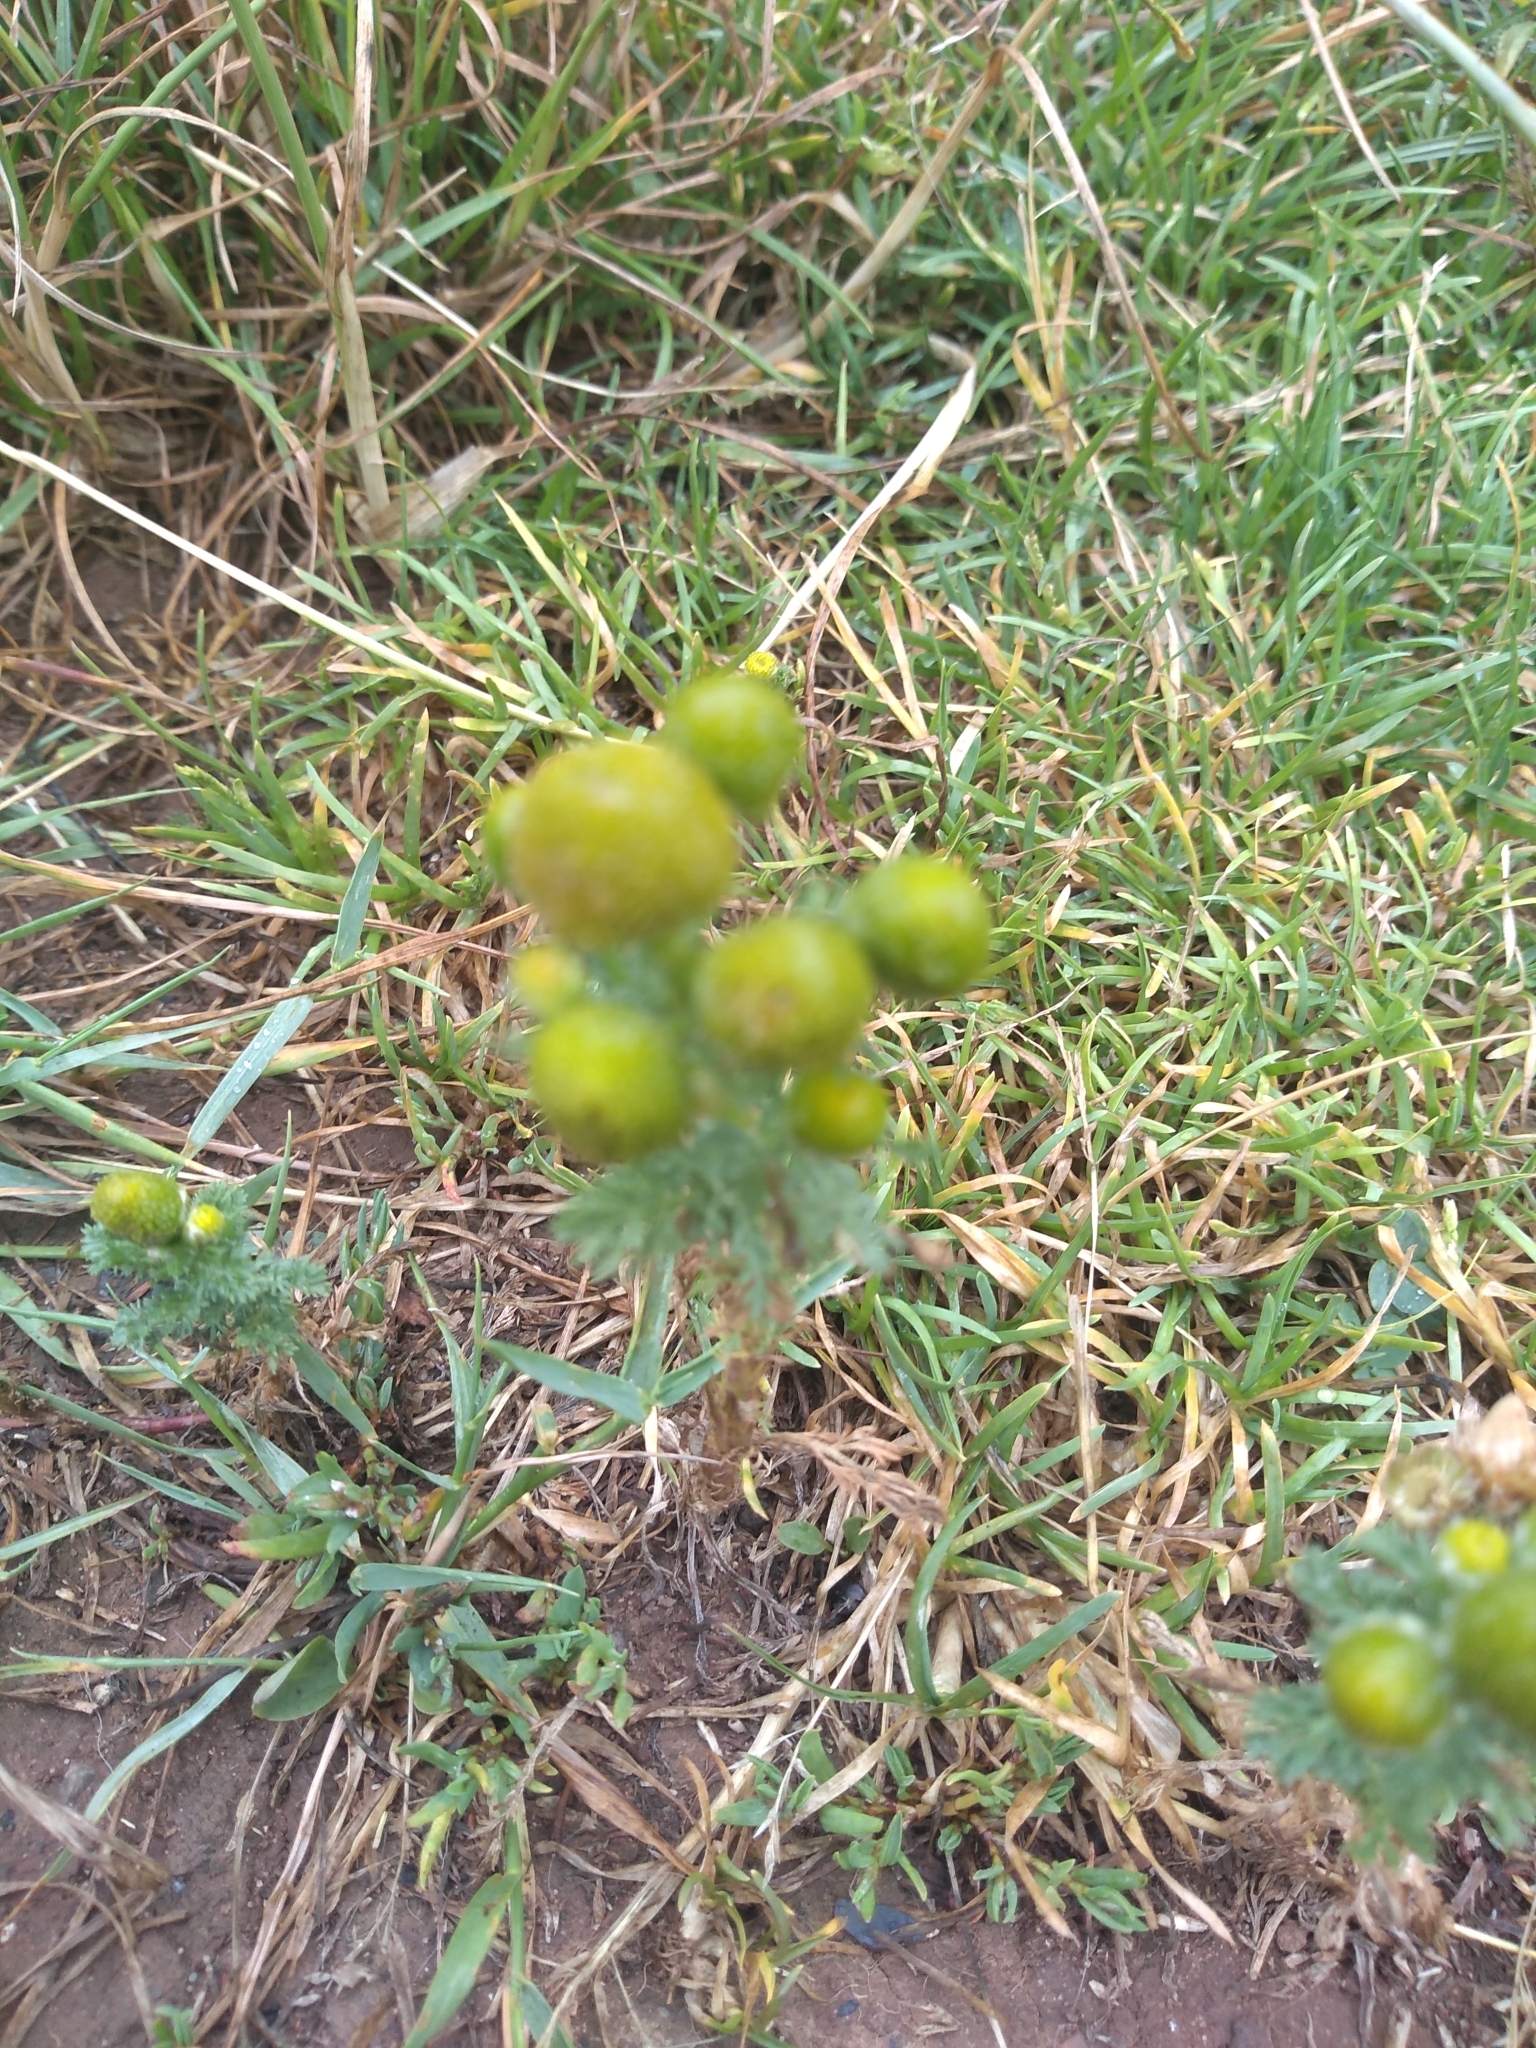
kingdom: Plantae
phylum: Tracheophyta
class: Magnoliopsida
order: Asterales
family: Asteraceae
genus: Matricaria
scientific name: Matricaria discoidea
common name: Disc mayweed
